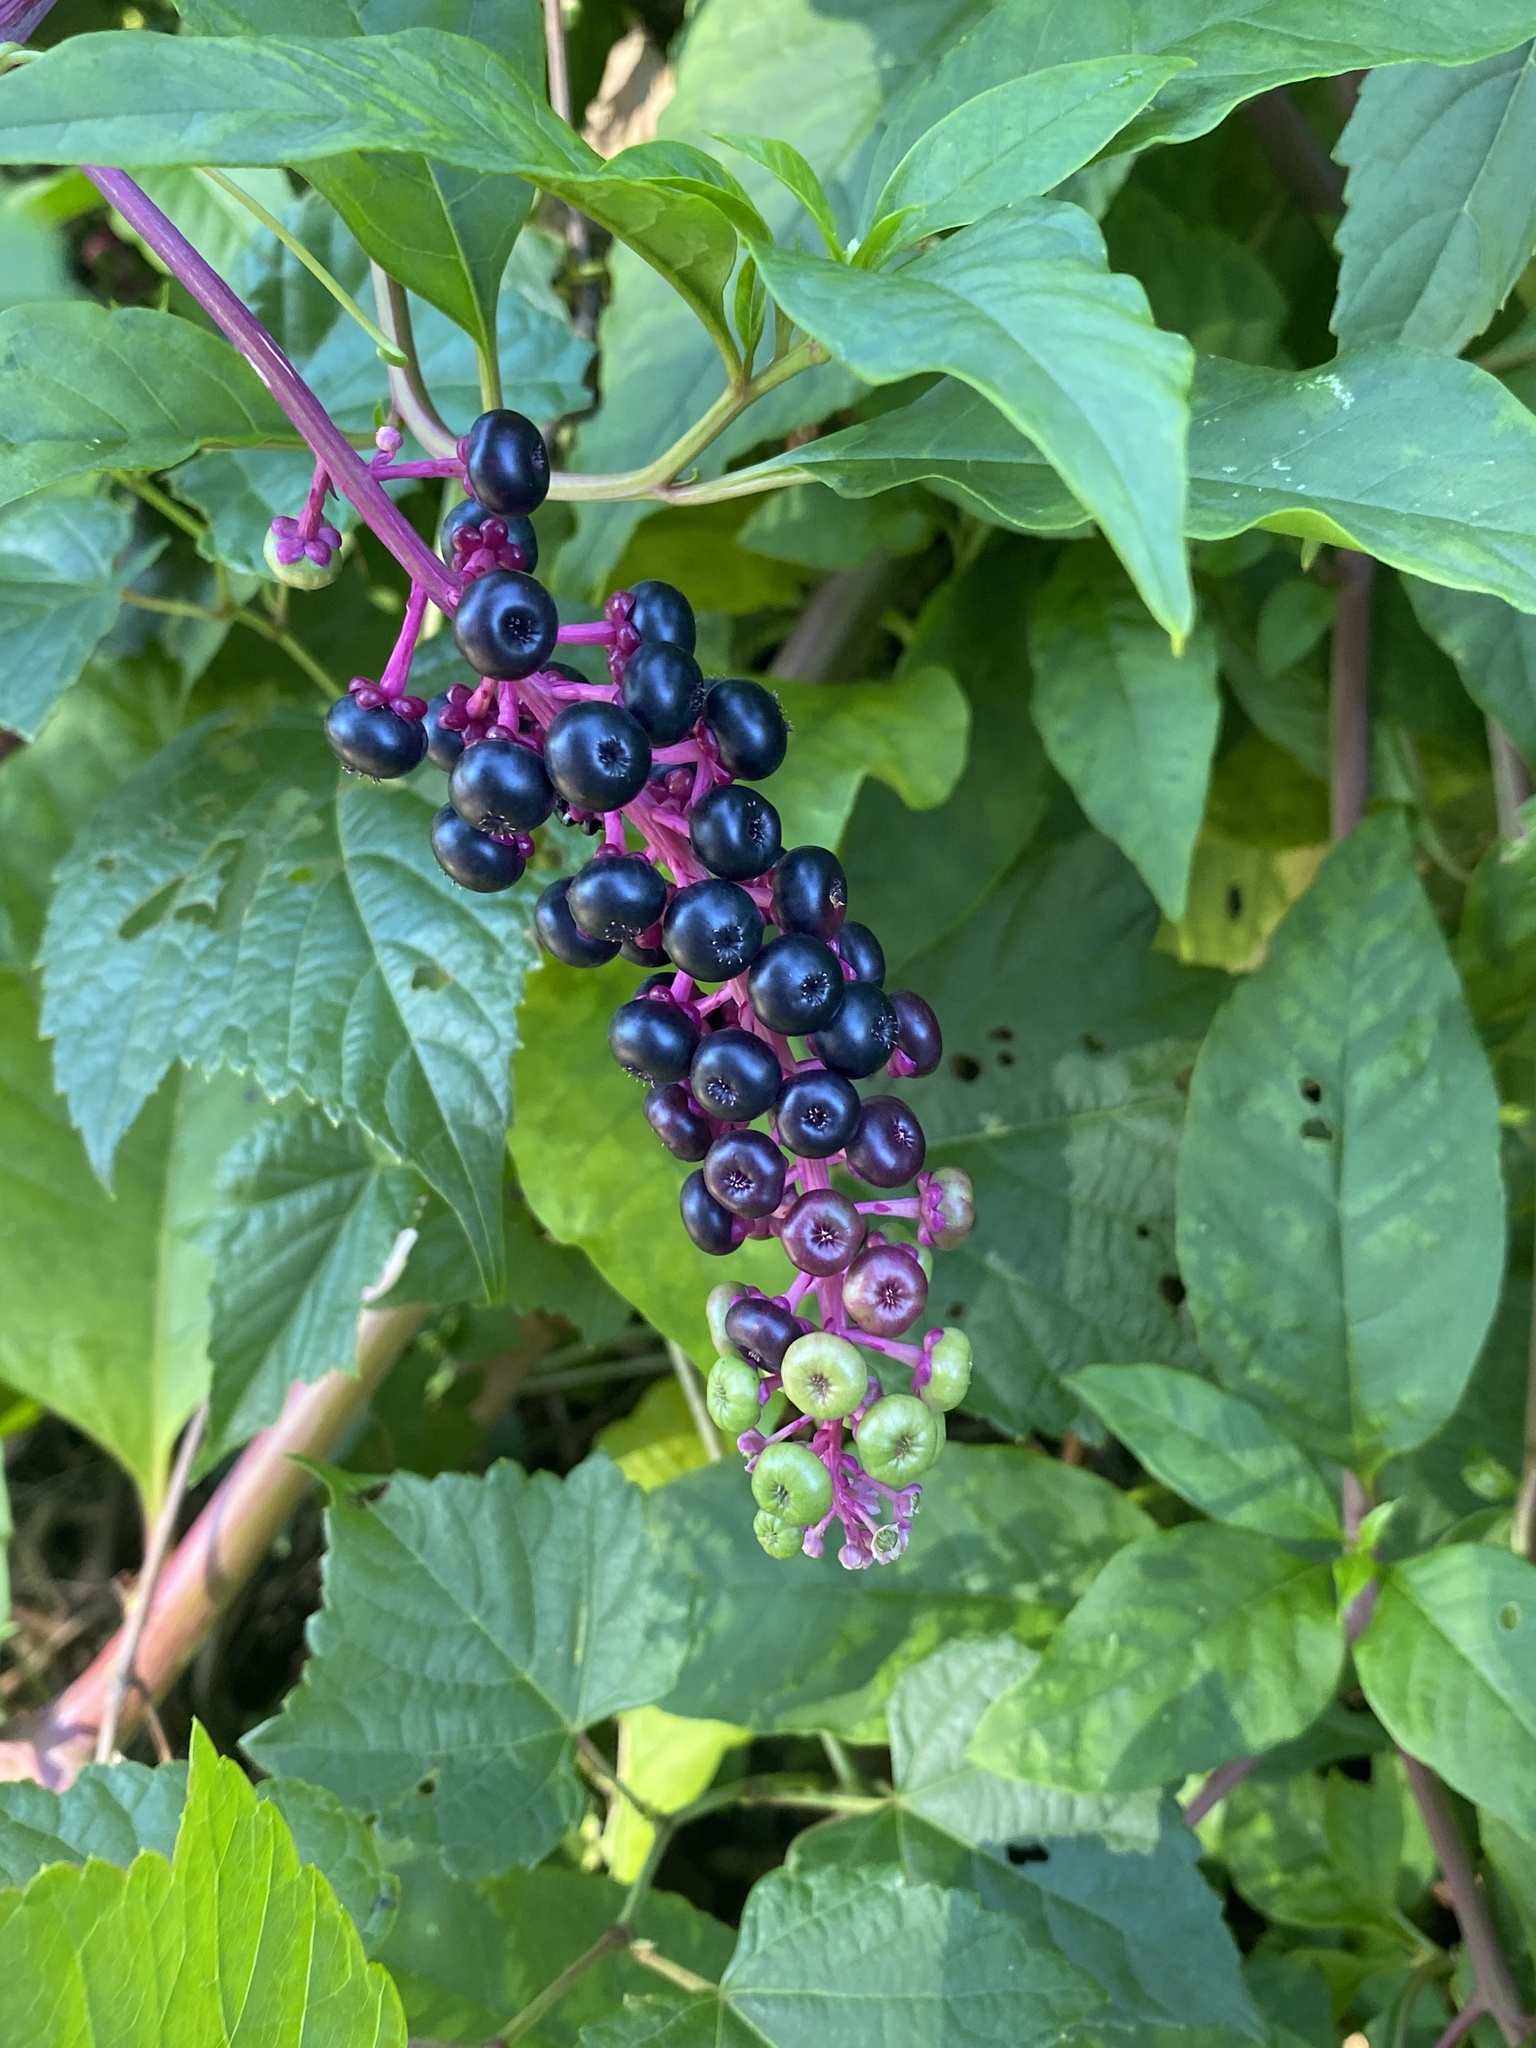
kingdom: Plantae
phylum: Tracheophyta
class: Magnoliopsida
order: Caryophyllales
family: Phytolaccaceae
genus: Phytolacca
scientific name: Phytolacca americana
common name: American pokeweed
